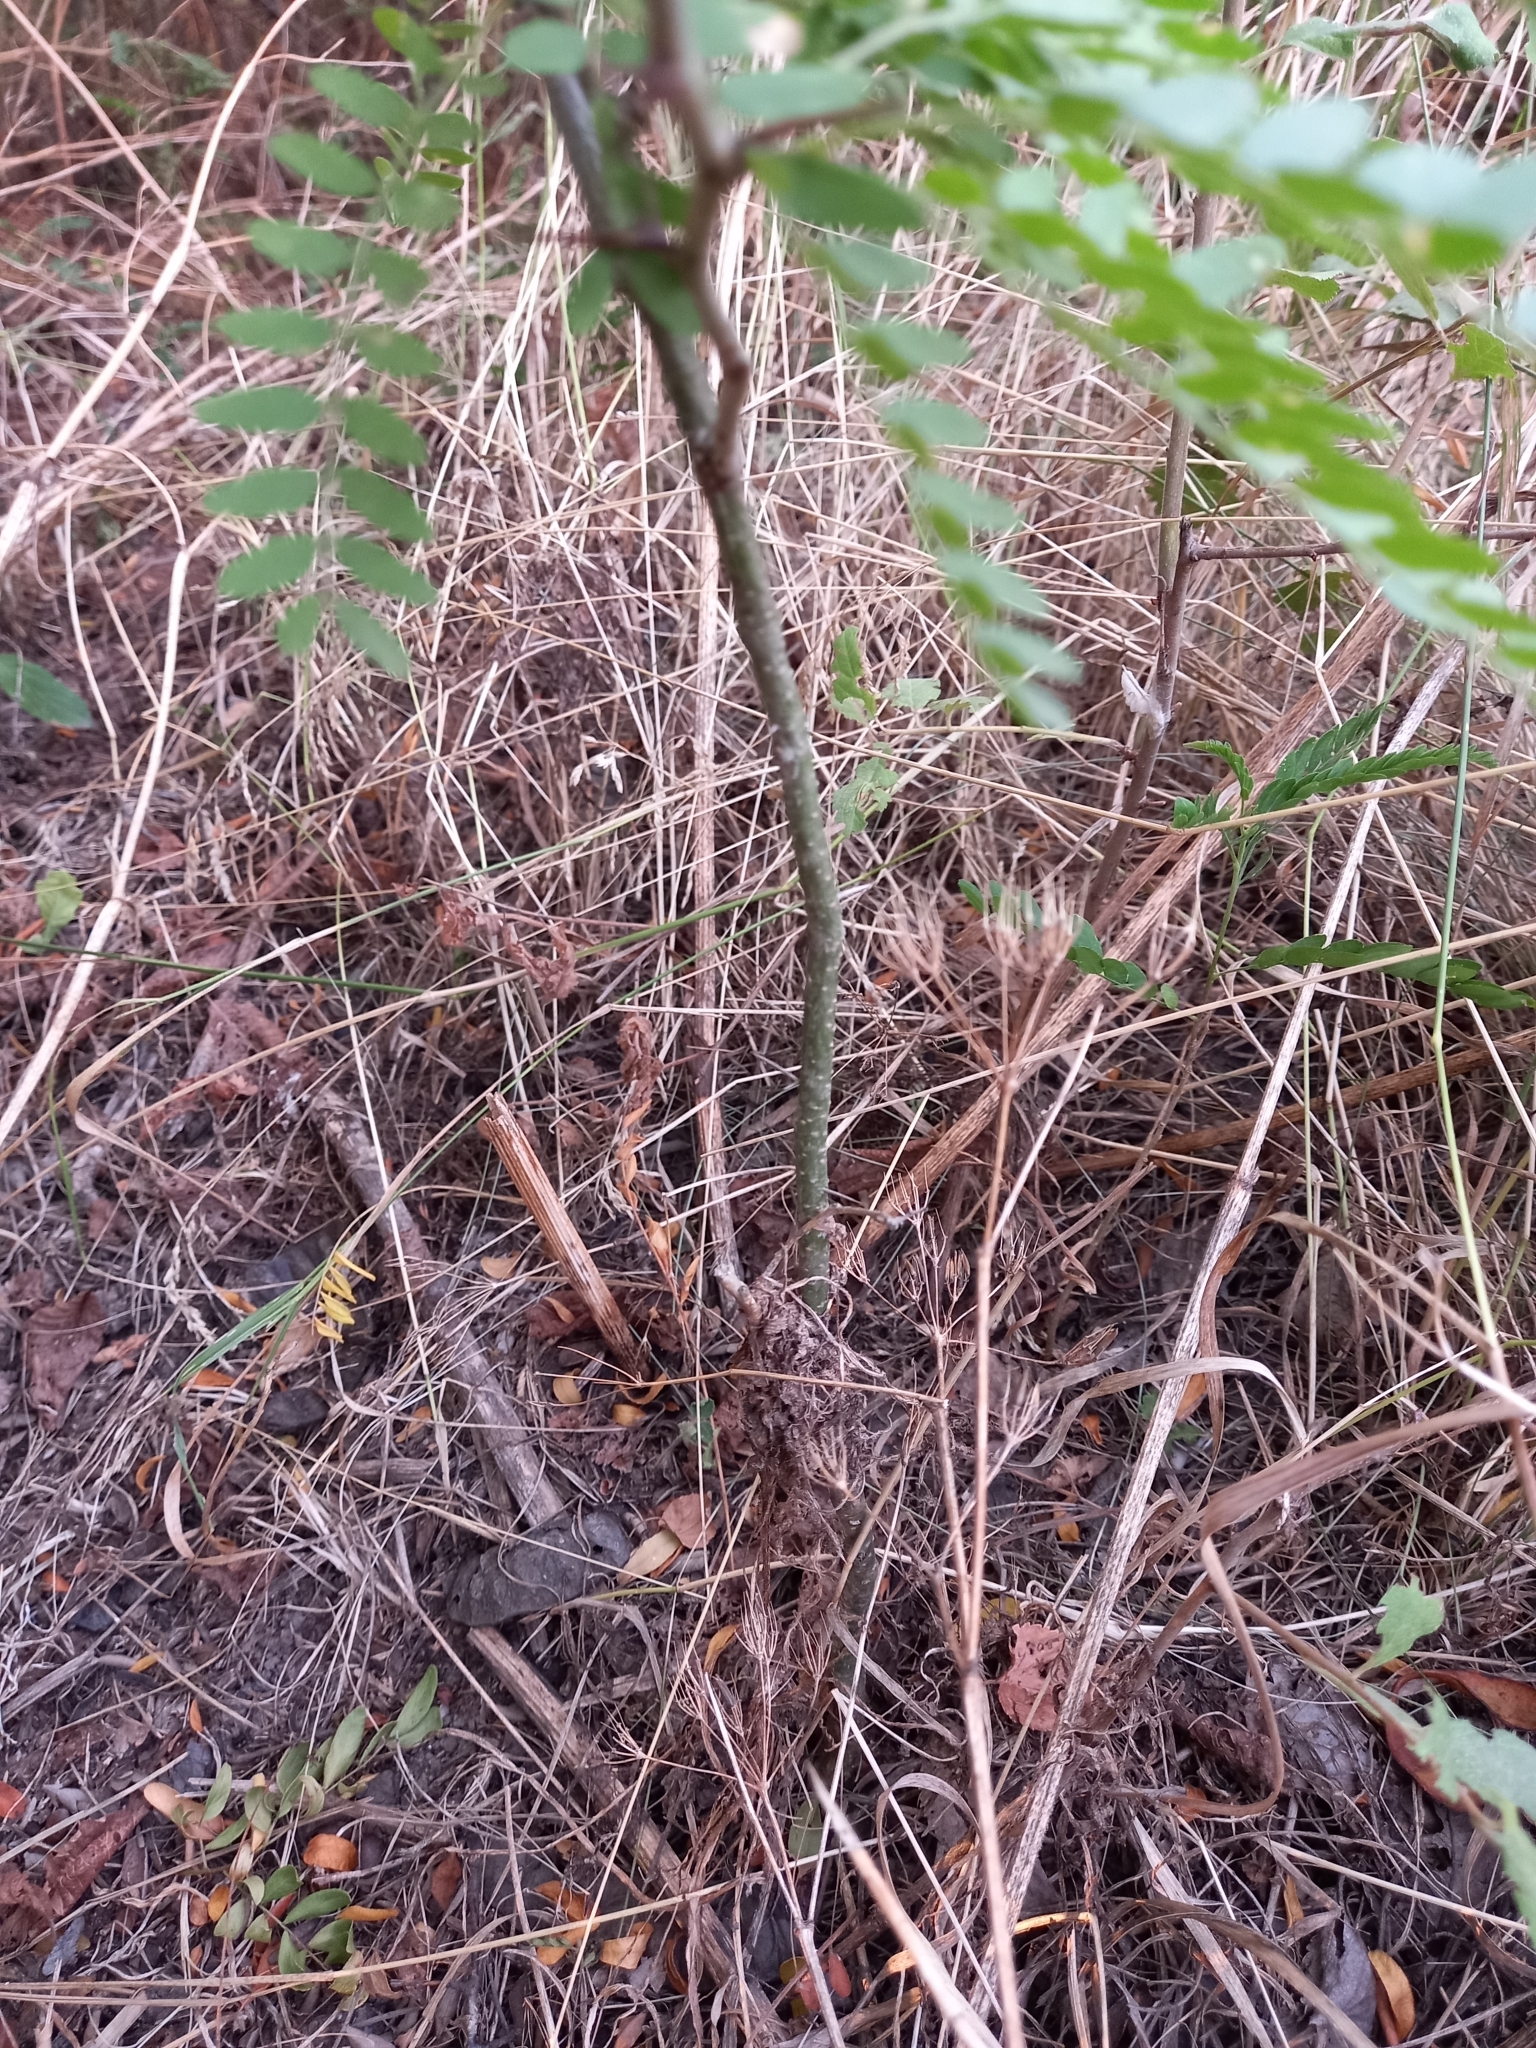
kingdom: Plantae
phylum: Tracheophyta
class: Magnoliopsida
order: Fabales
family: Fabaceae
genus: Gleditsia
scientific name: Gleditsia triacanthos
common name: Common honeylocust
